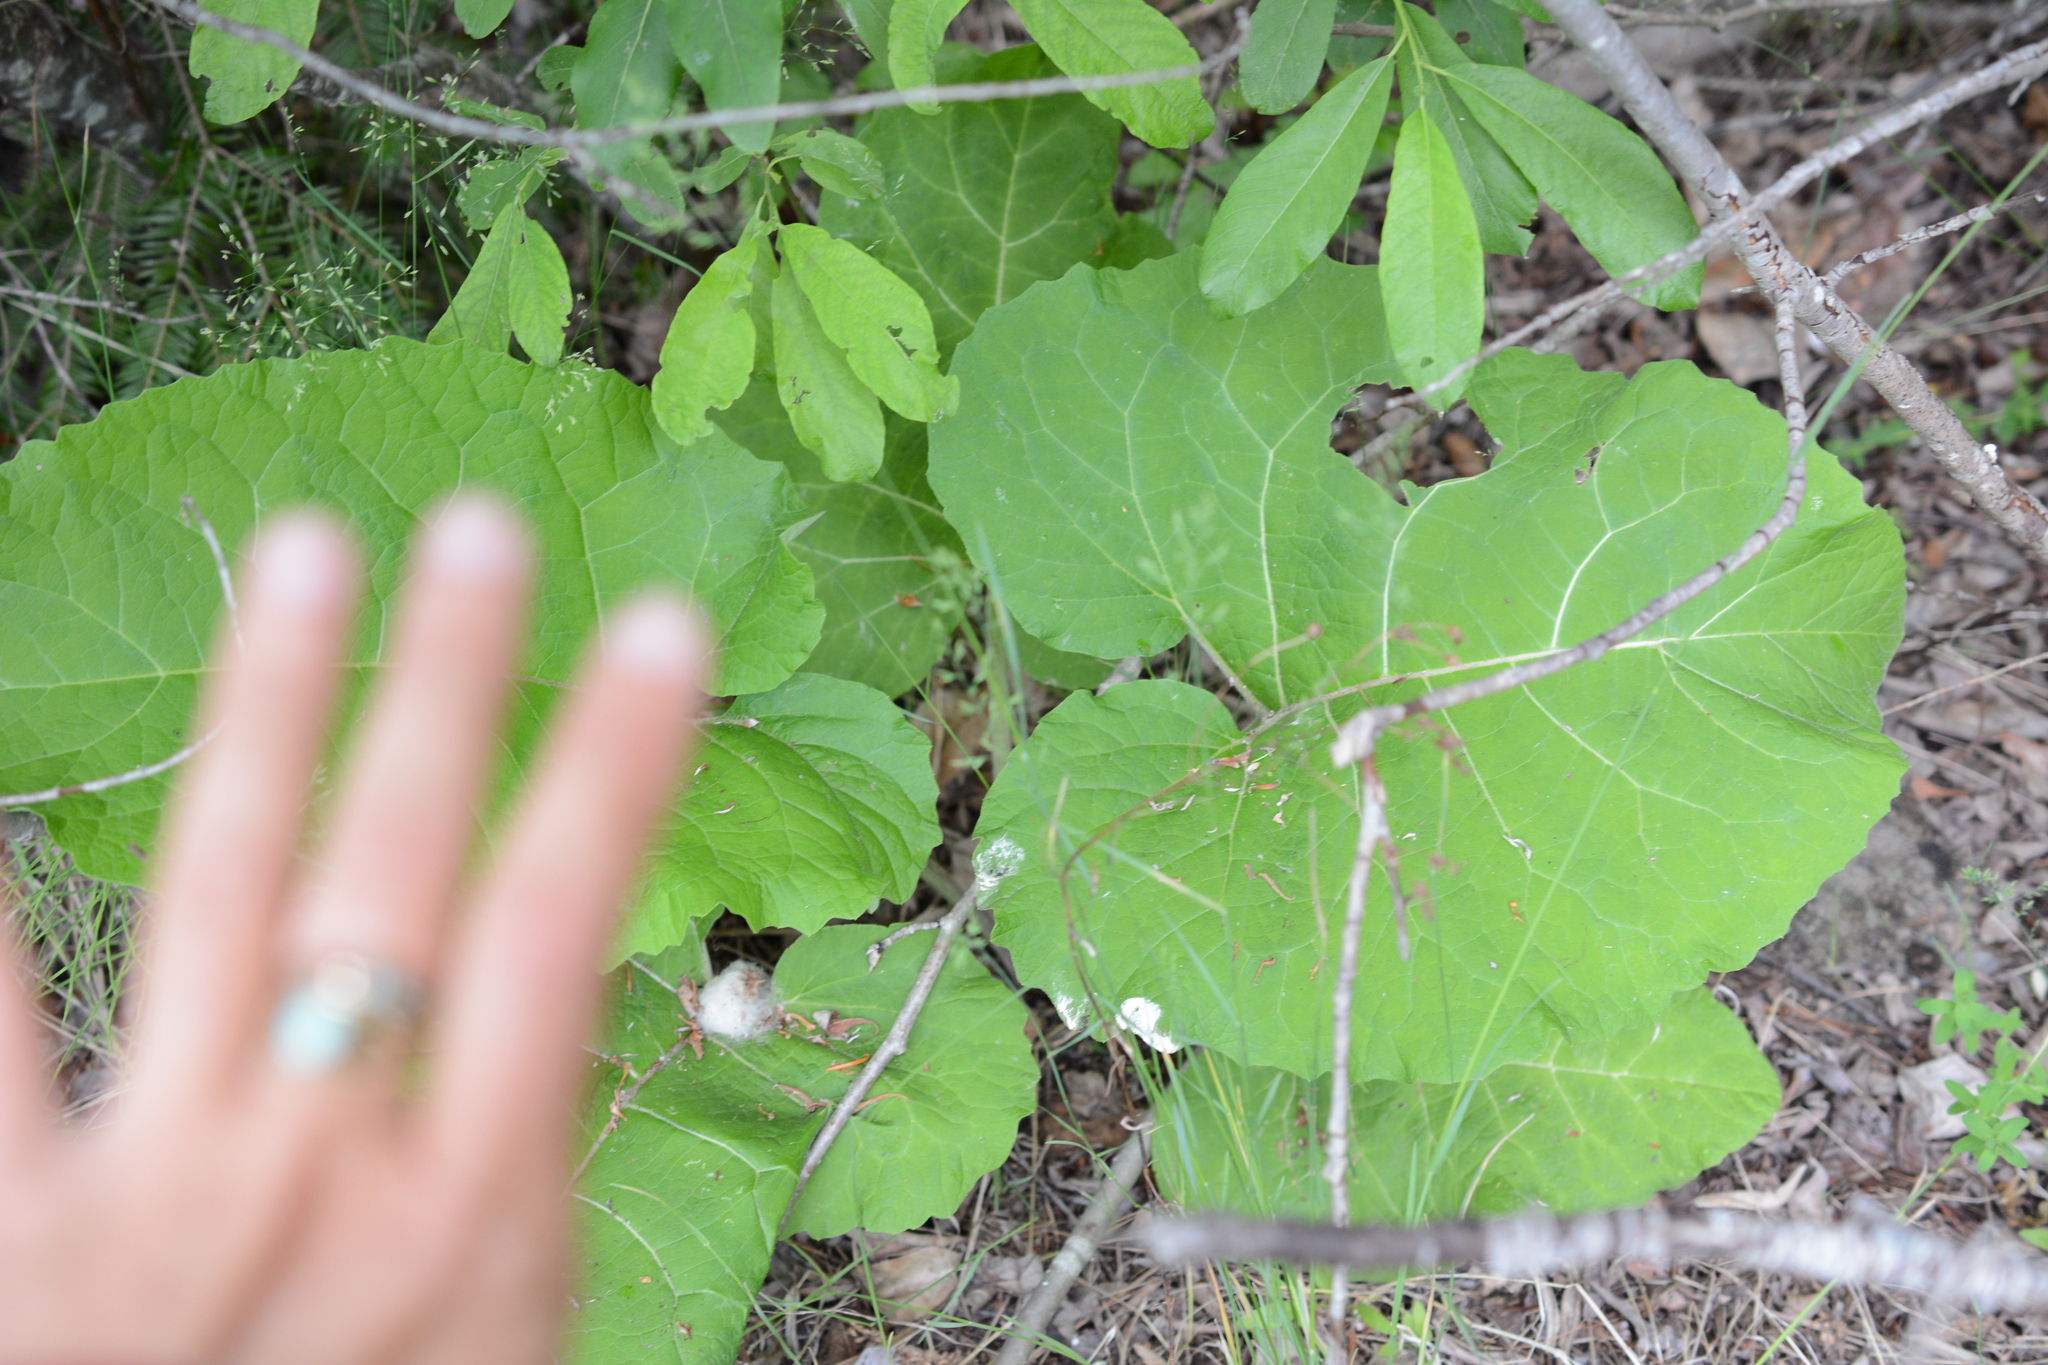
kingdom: Plantae
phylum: Tracheophyta
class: Magnoliopsida
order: Asterales
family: Asteraceae
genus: Arctium
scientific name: Arctium
